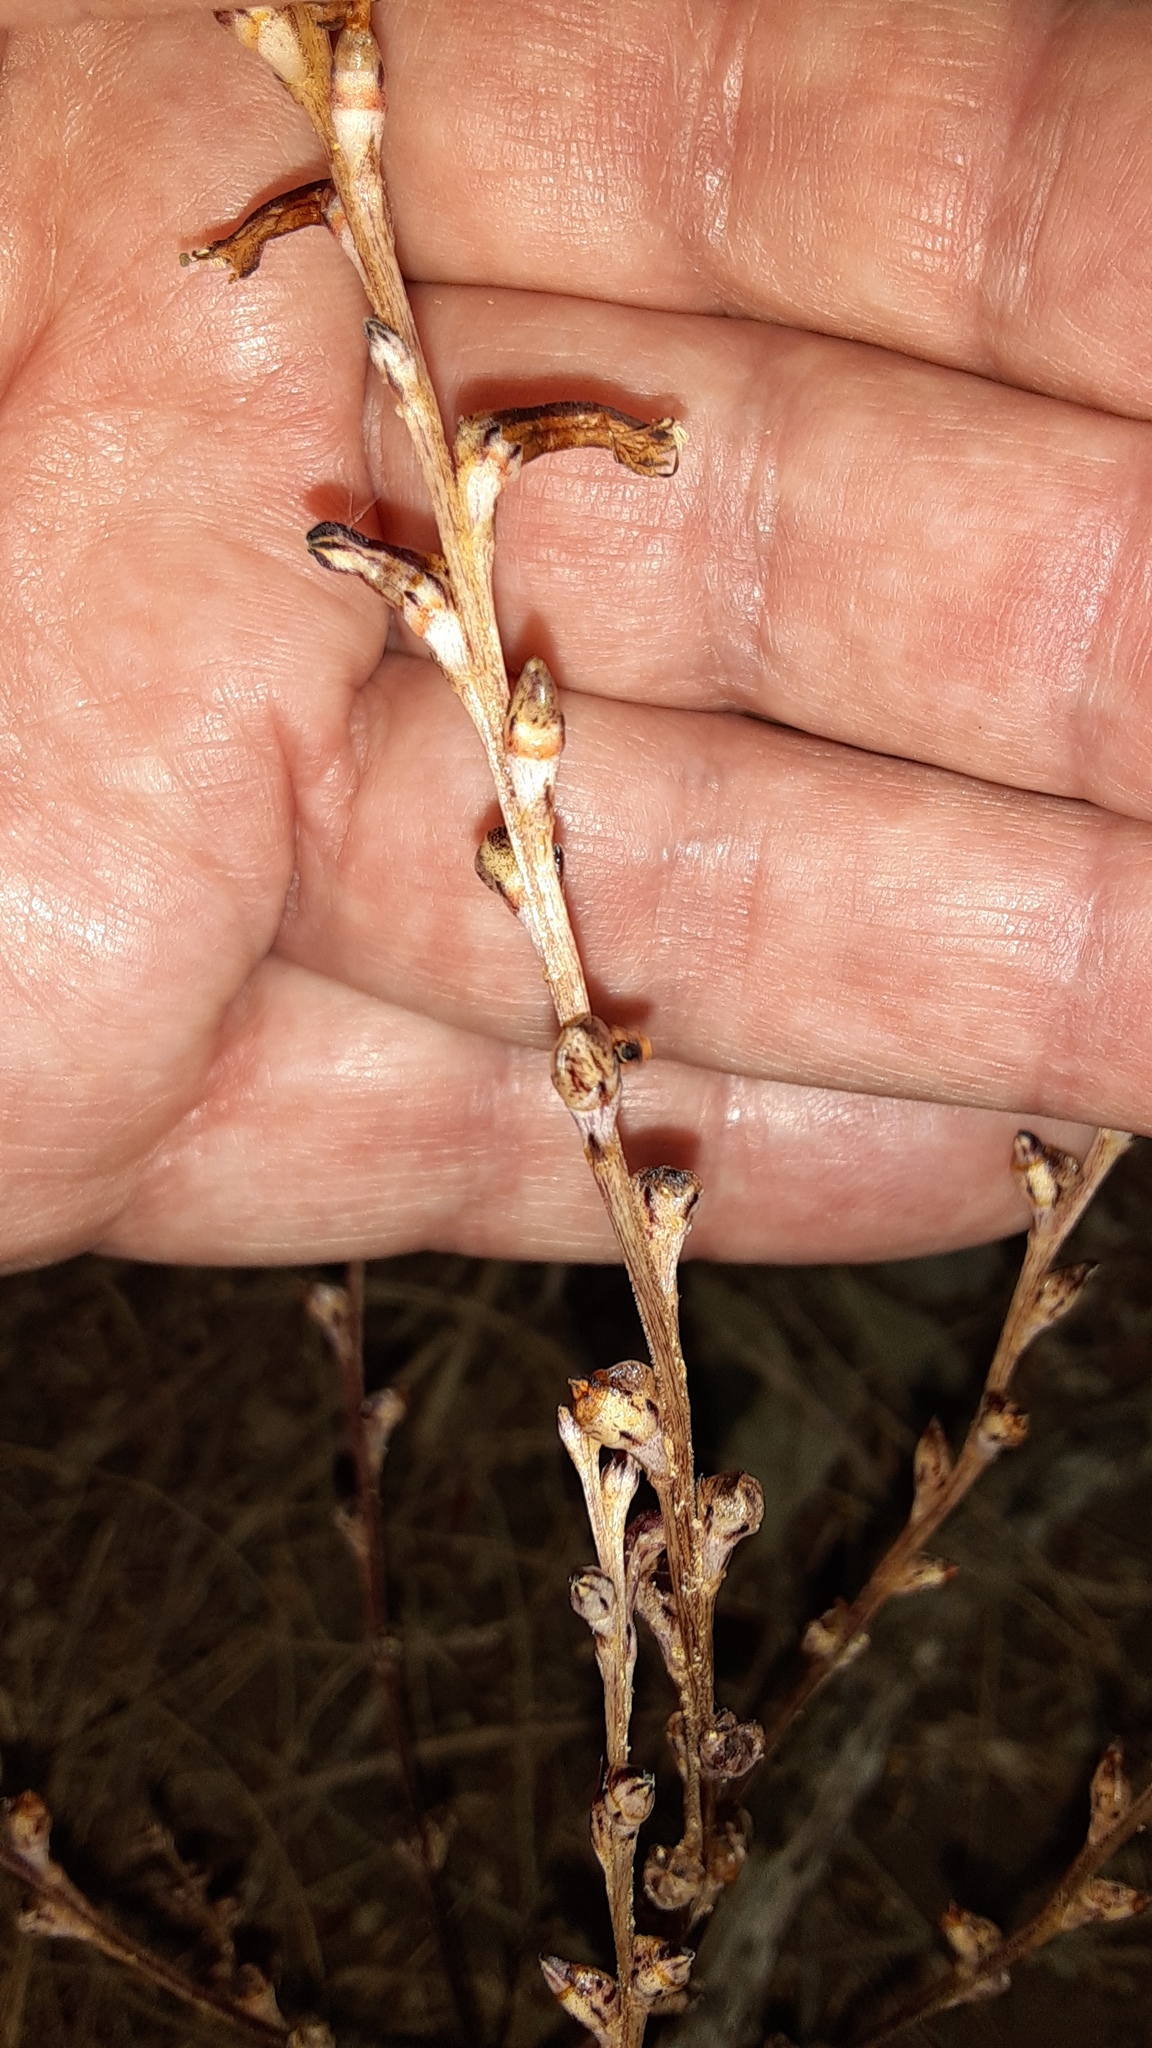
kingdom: Plantae
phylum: Tracheophyta
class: Magnoliopsida
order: Lamiales
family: Orobanchaceae
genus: Epifagus
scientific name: Epifagus virginiana
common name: Beechdrops
